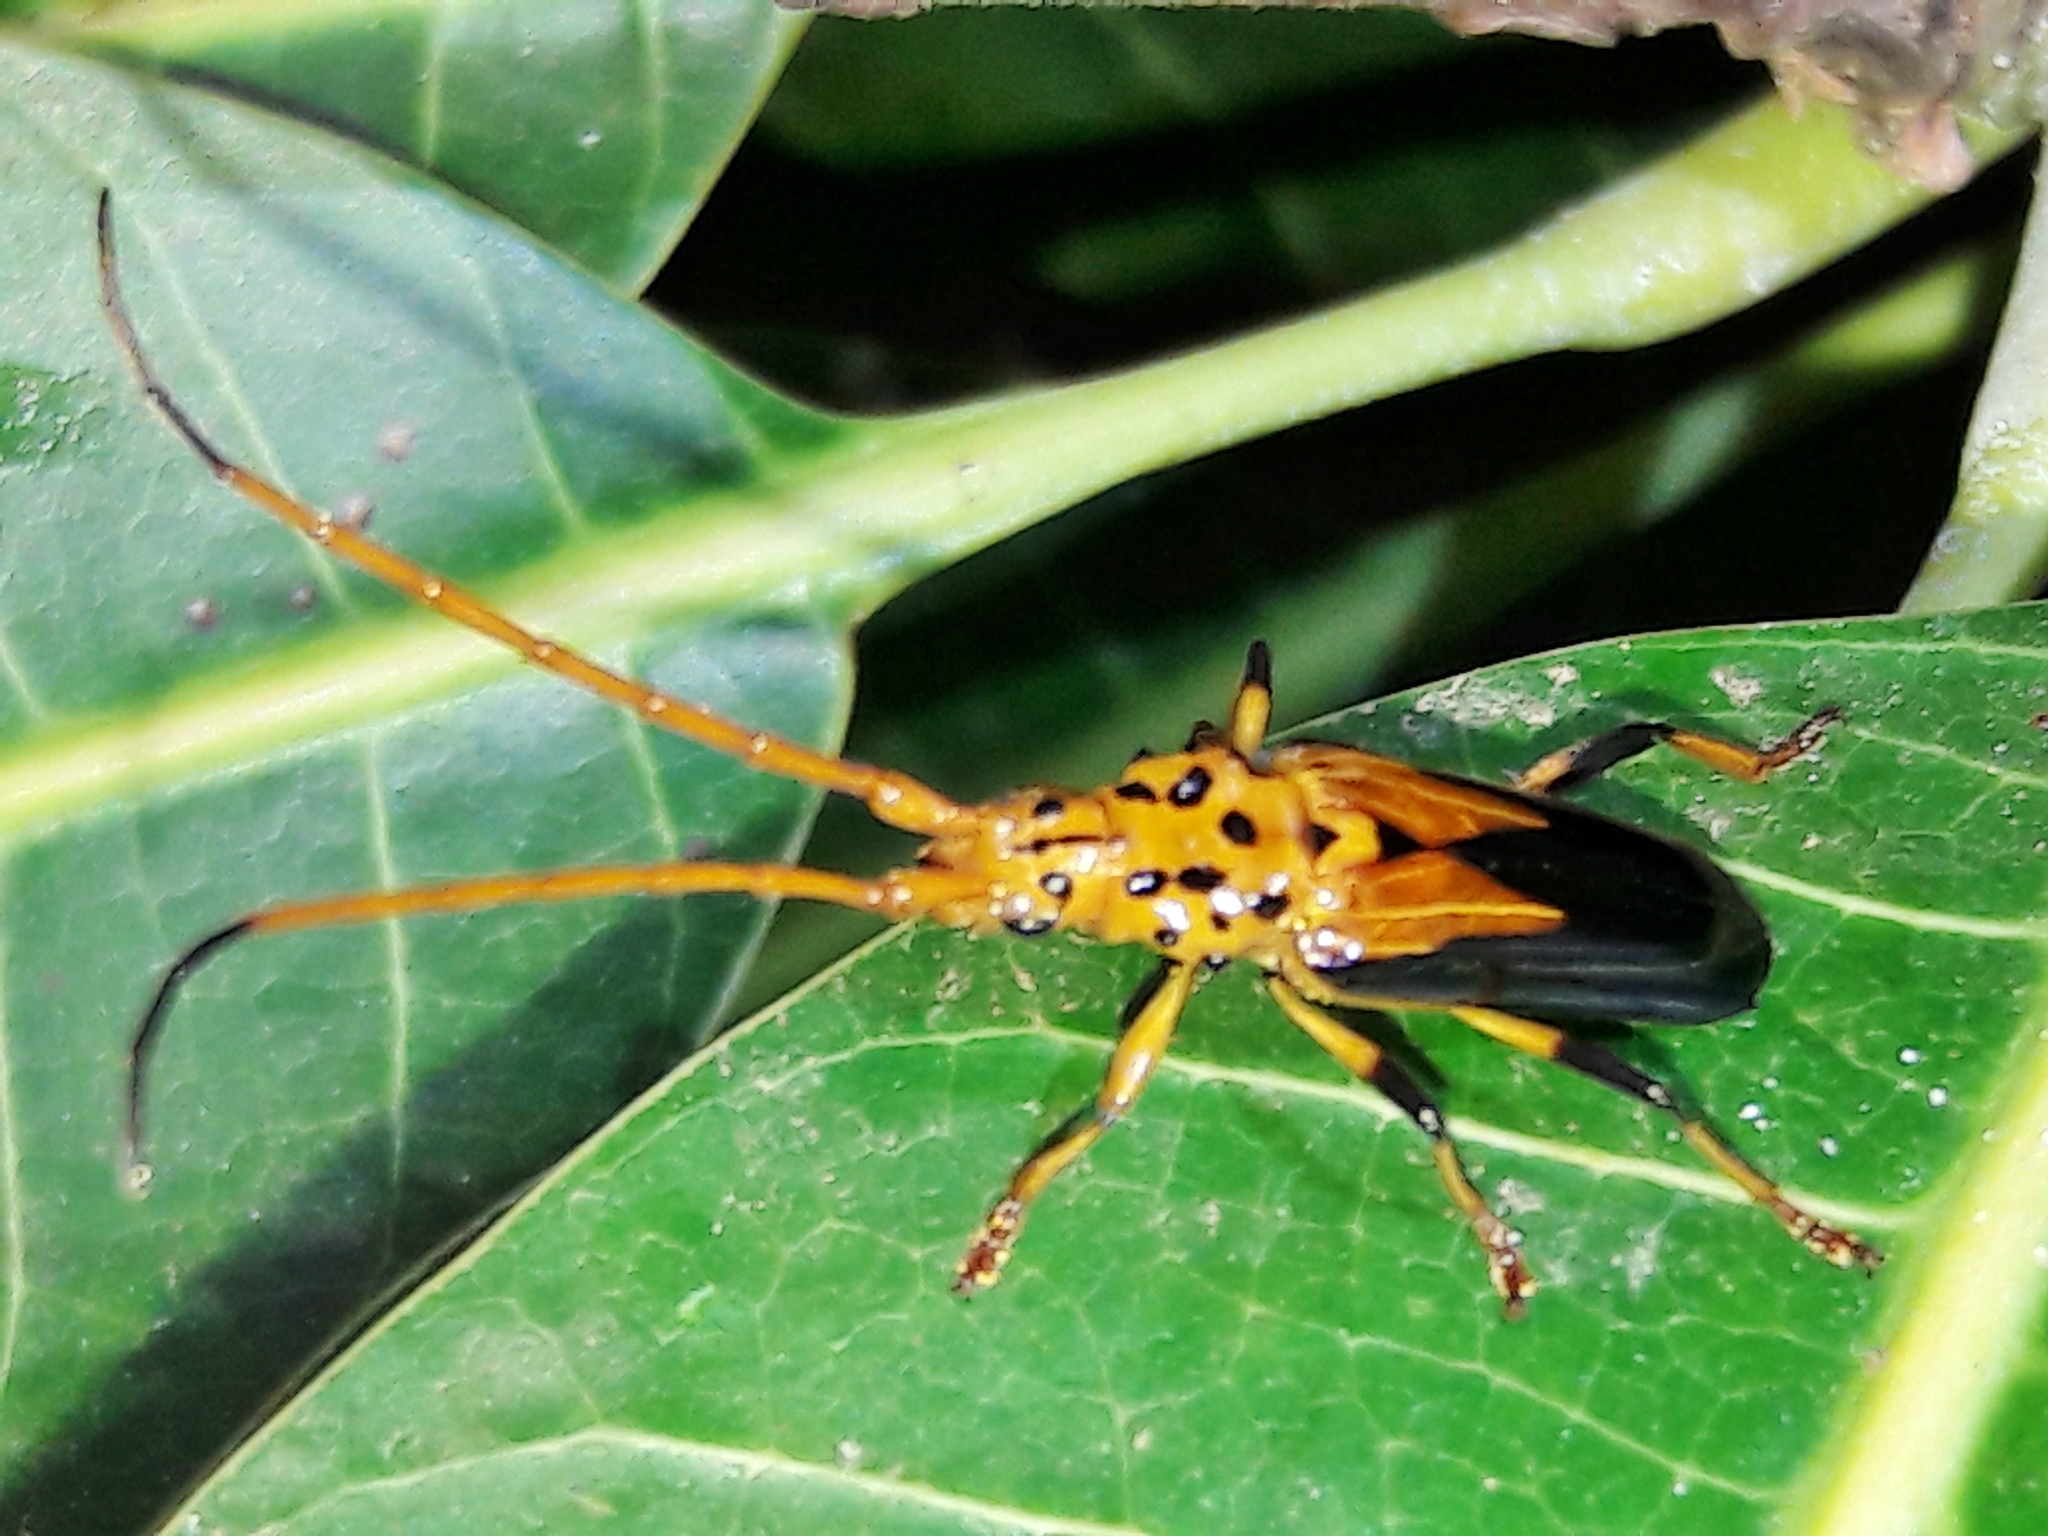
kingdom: Animalia
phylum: Arthropoda
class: Insecta
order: Coleoptera
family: Cerambycidae
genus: Chydarteres
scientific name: Chydarteres dimidiatus
